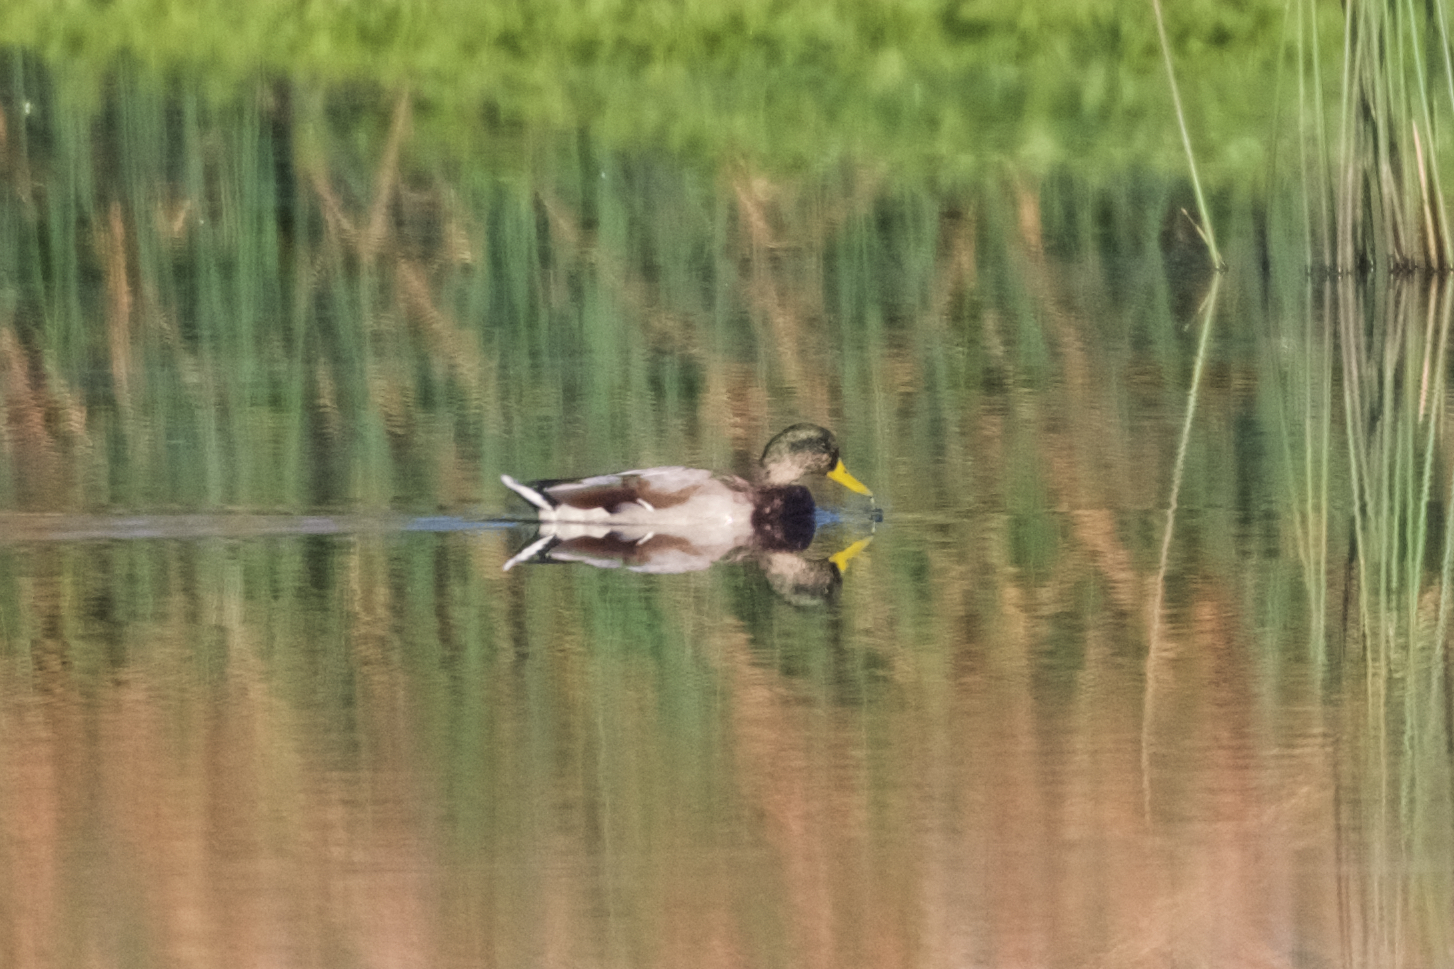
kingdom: Animalia
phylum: Chordata
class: Aves
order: Anseriformes
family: Anatidae
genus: Anas
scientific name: Anas platyrhynchos
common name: Mallard
